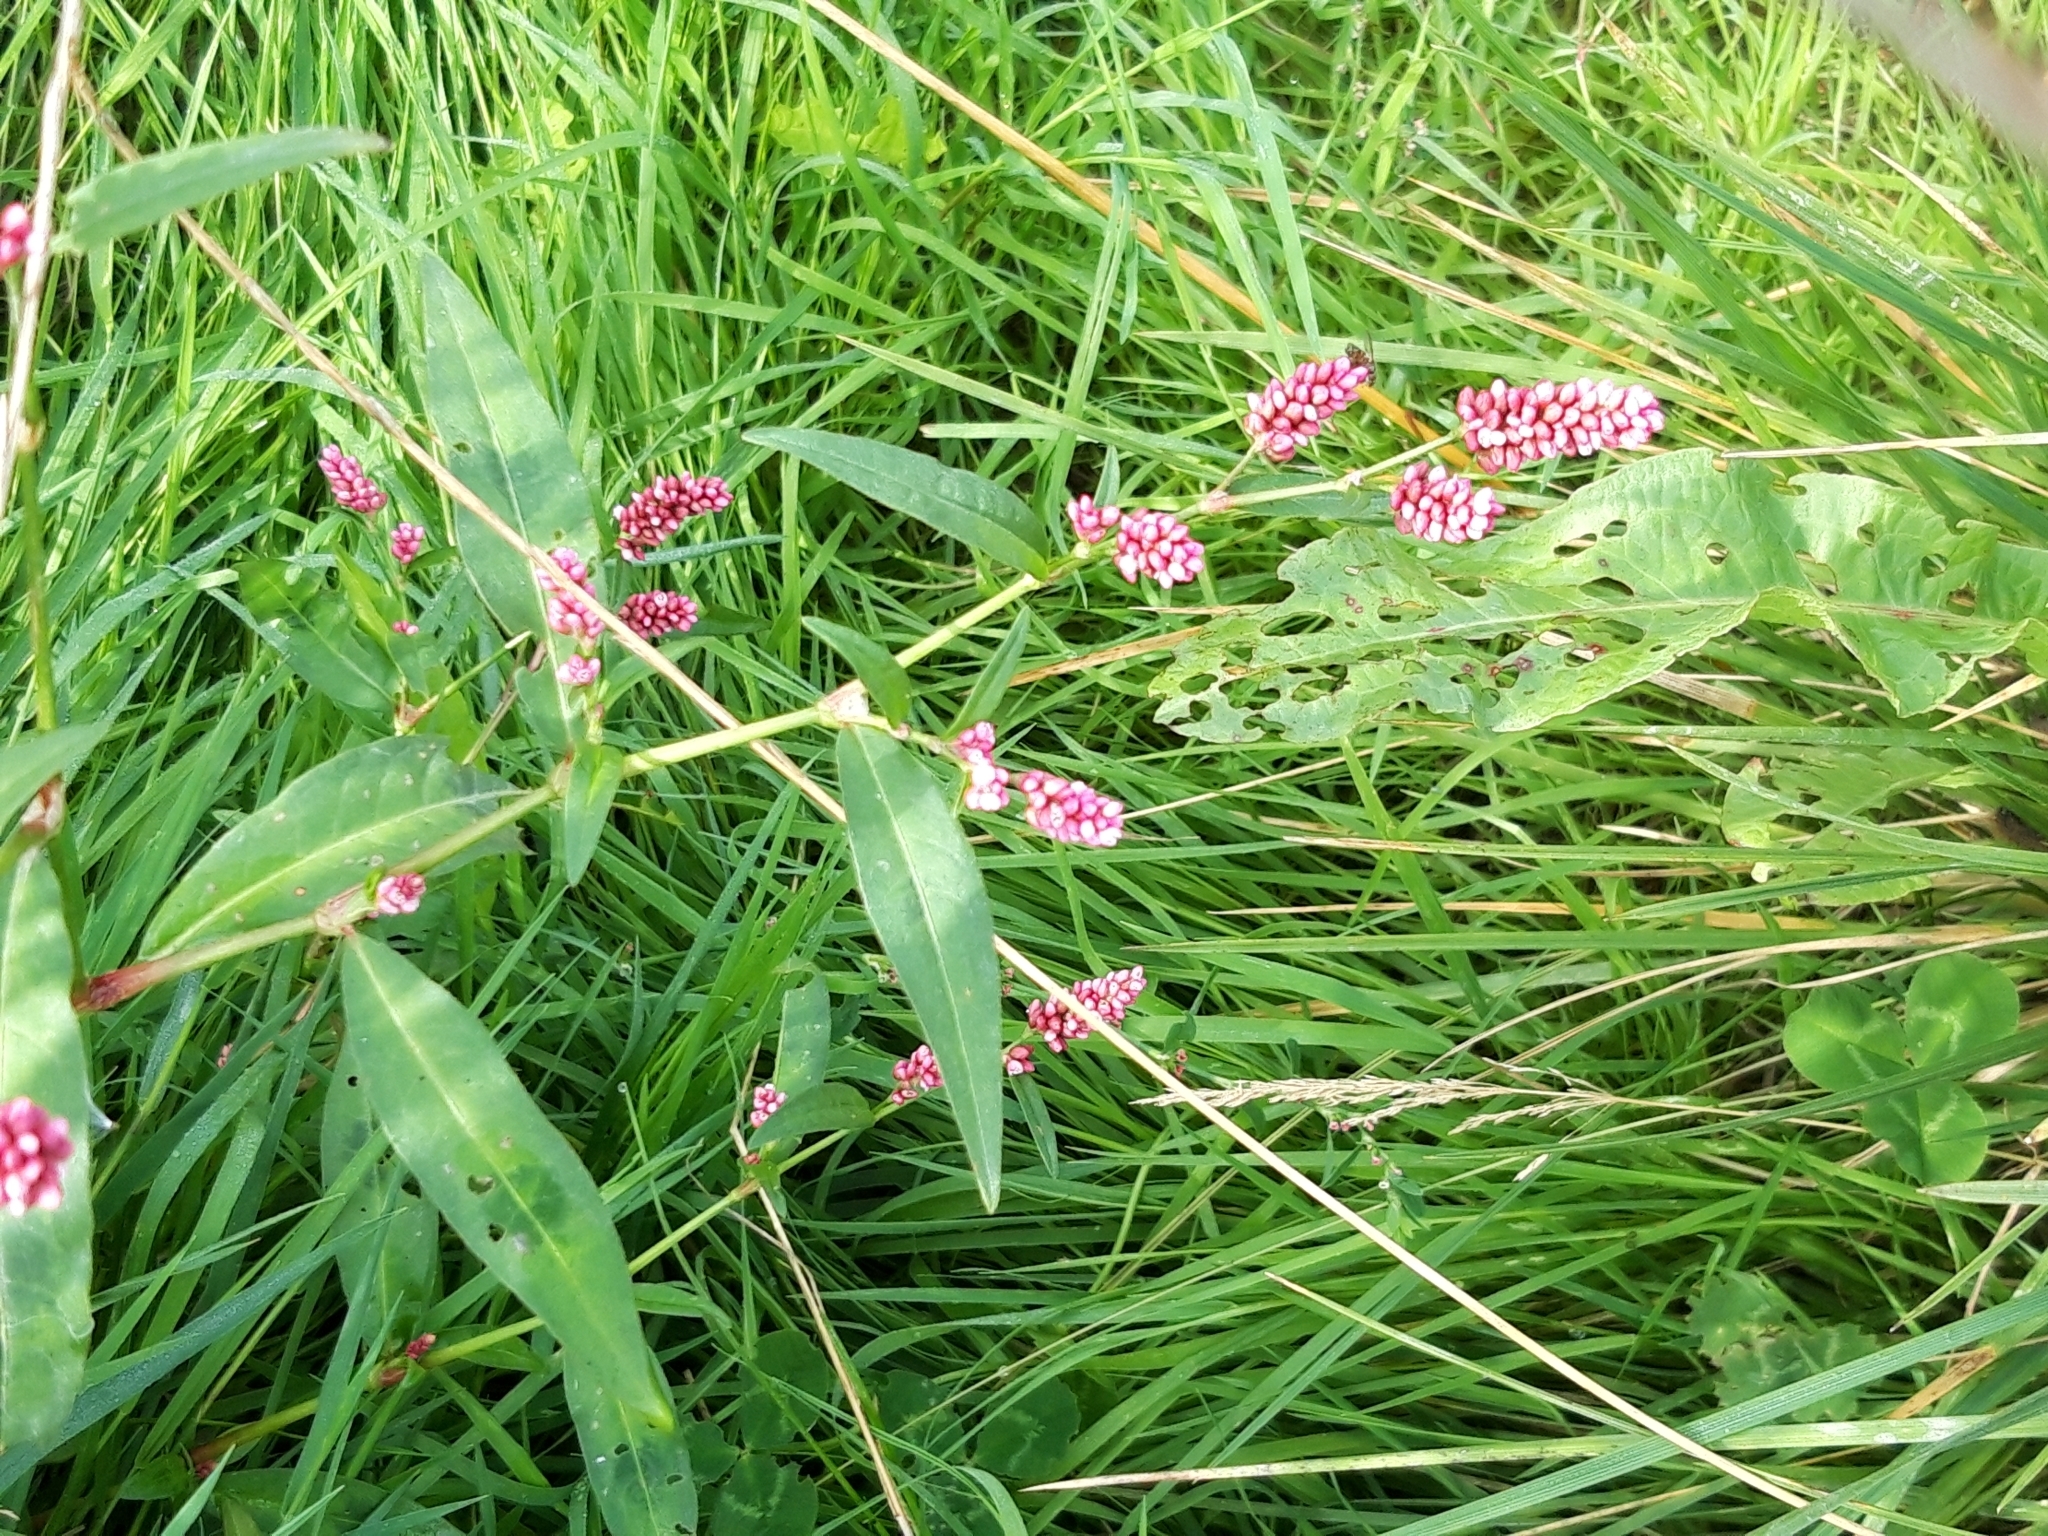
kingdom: Plantae
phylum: Tracheophyta
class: Magnoliopsida
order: Caryophyllales
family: Polygonaceae
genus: Persicaria
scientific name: Persicaria maculosa
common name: Redshank
